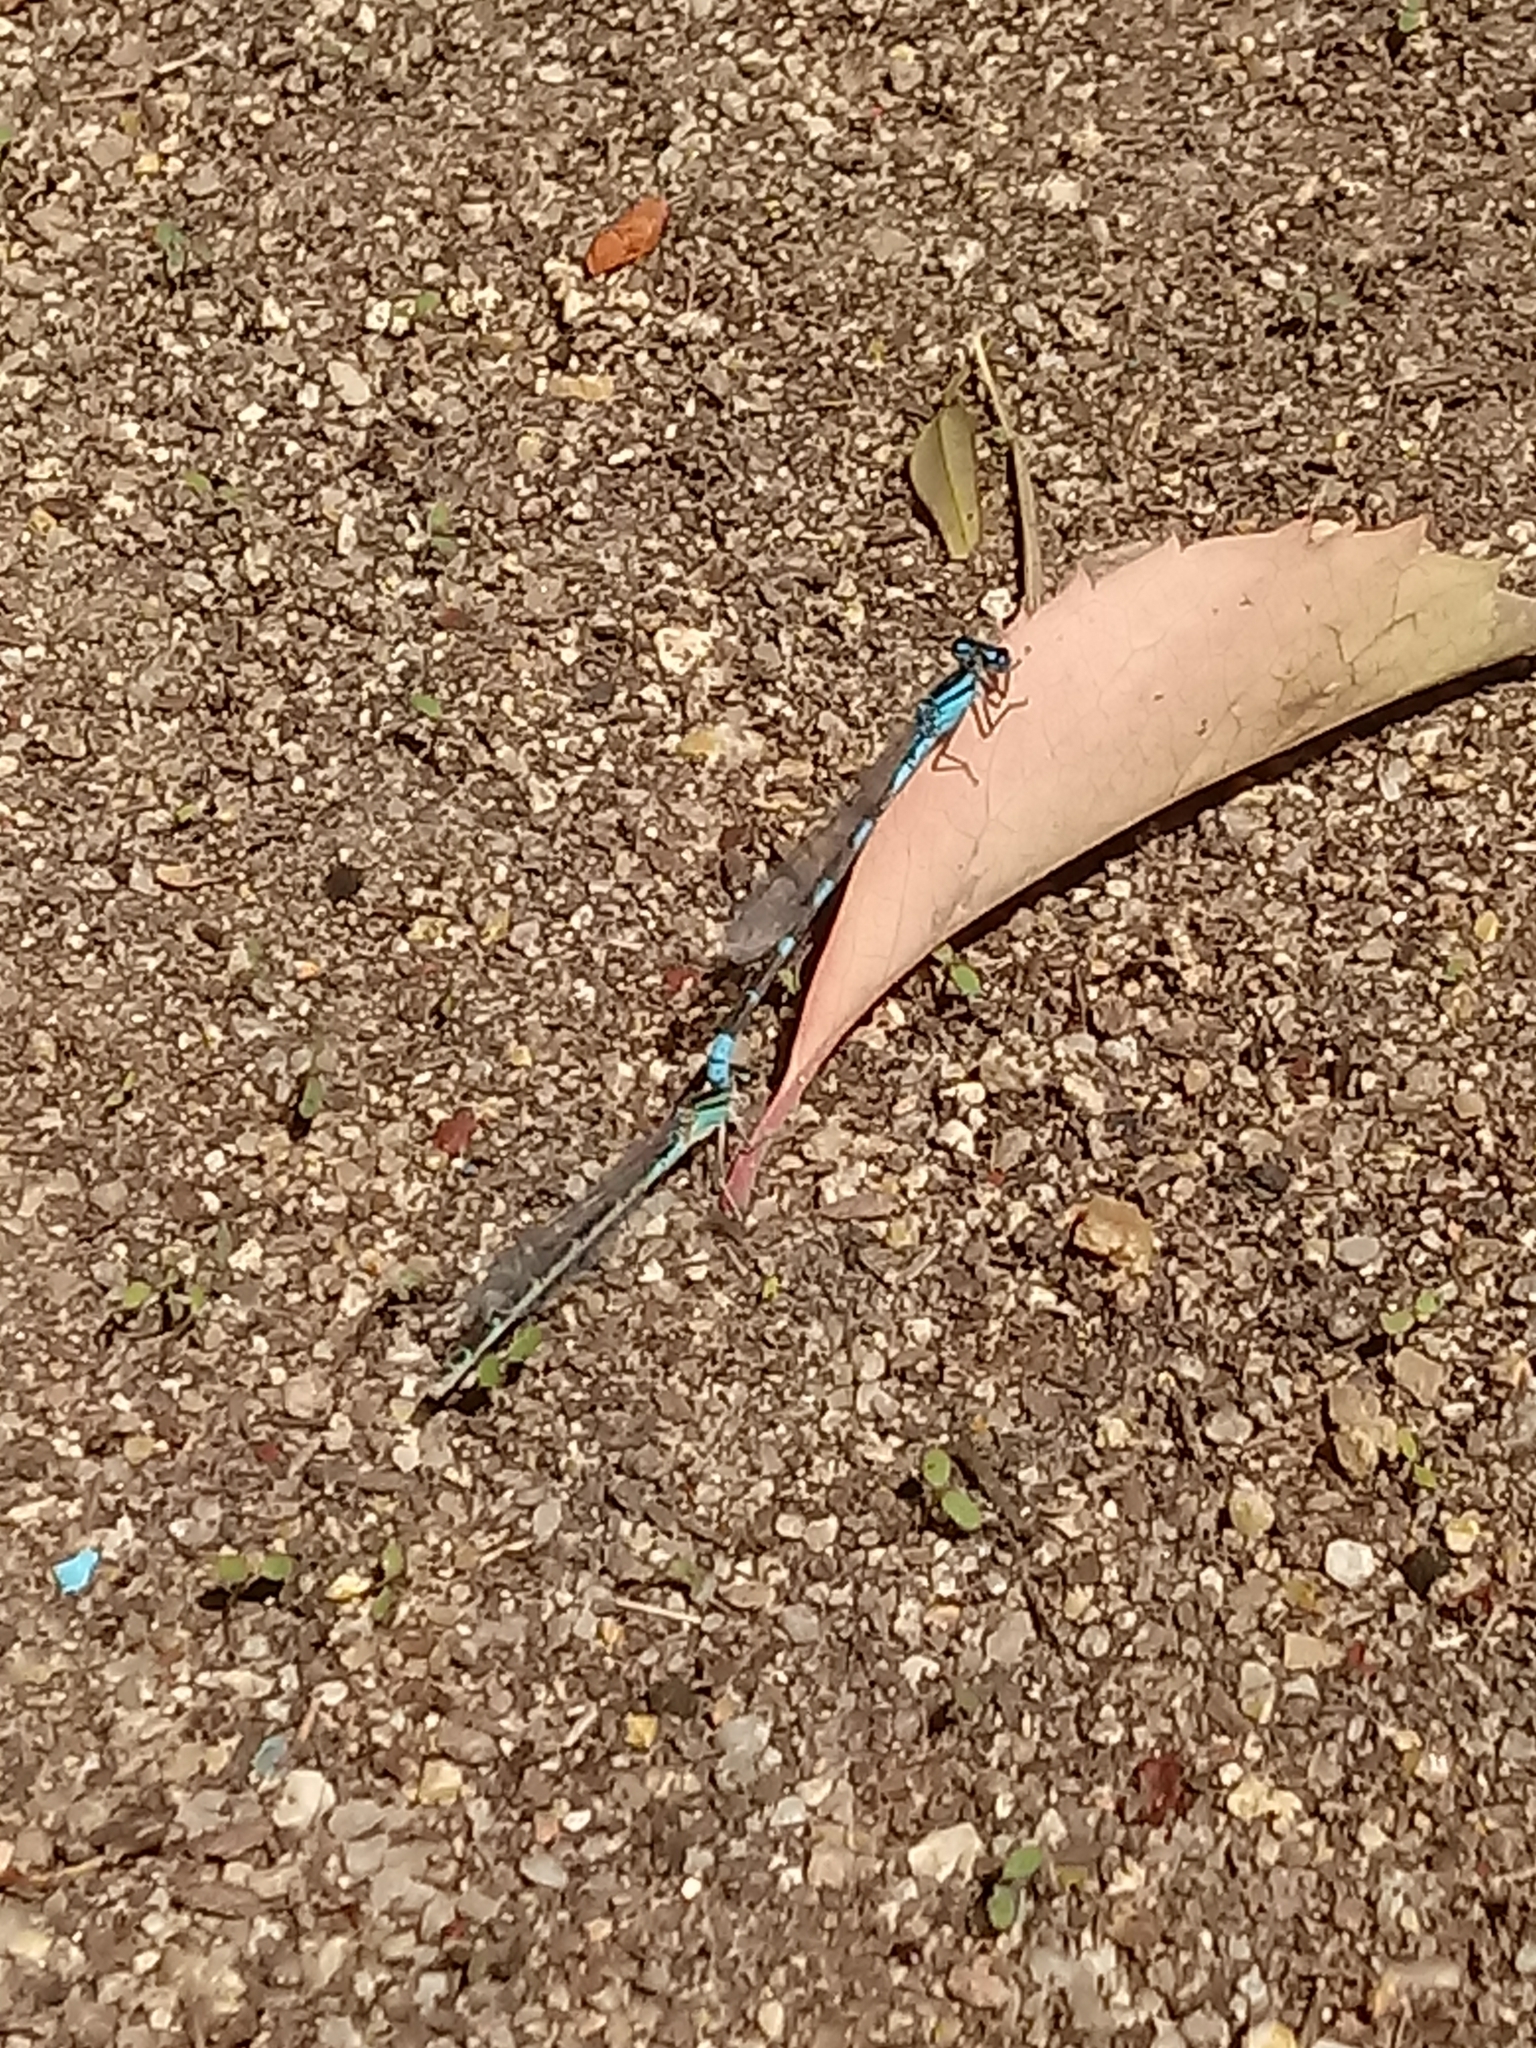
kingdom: Animalia
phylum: Arthropoda
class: Insecta
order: Odonata
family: Coenagrionidae
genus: Enallagma
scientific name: Enallagma carunculatum
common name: Tule bluet
